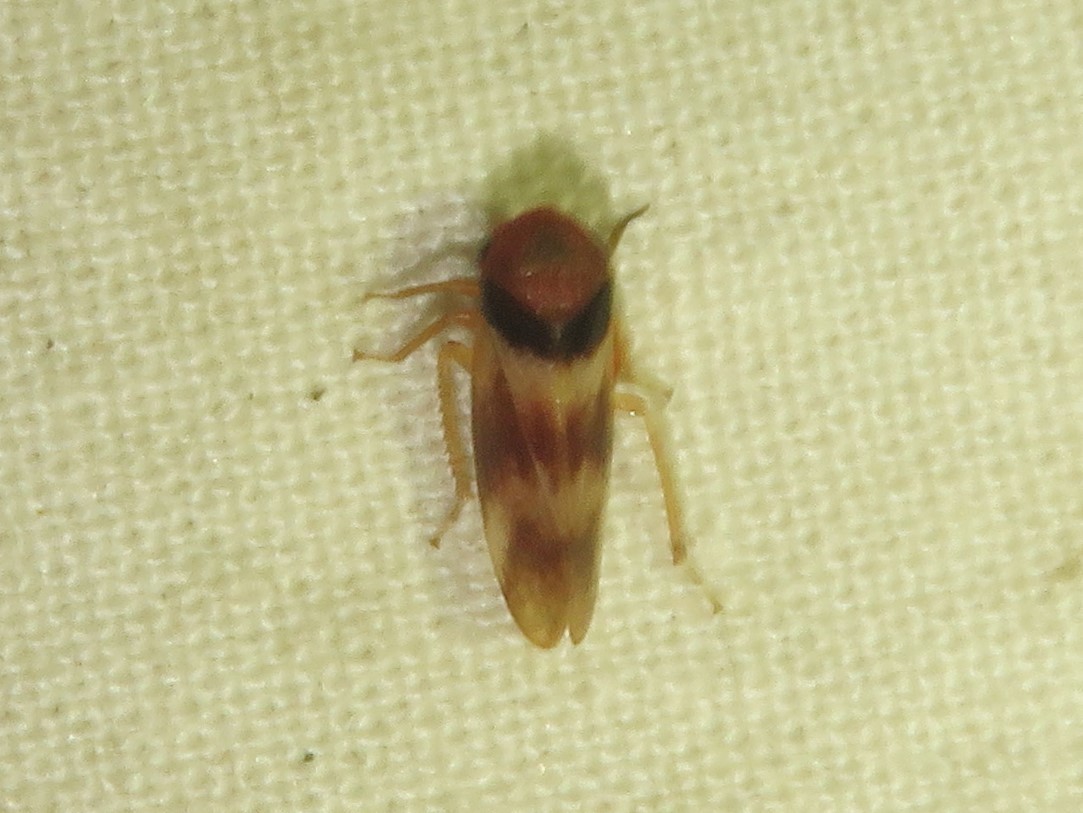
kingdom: Animalia
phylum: Arthropoda
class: Insecta
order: Hemiptera
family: Cicadellidae
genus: Macropsis
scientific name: Macropsis basalis
